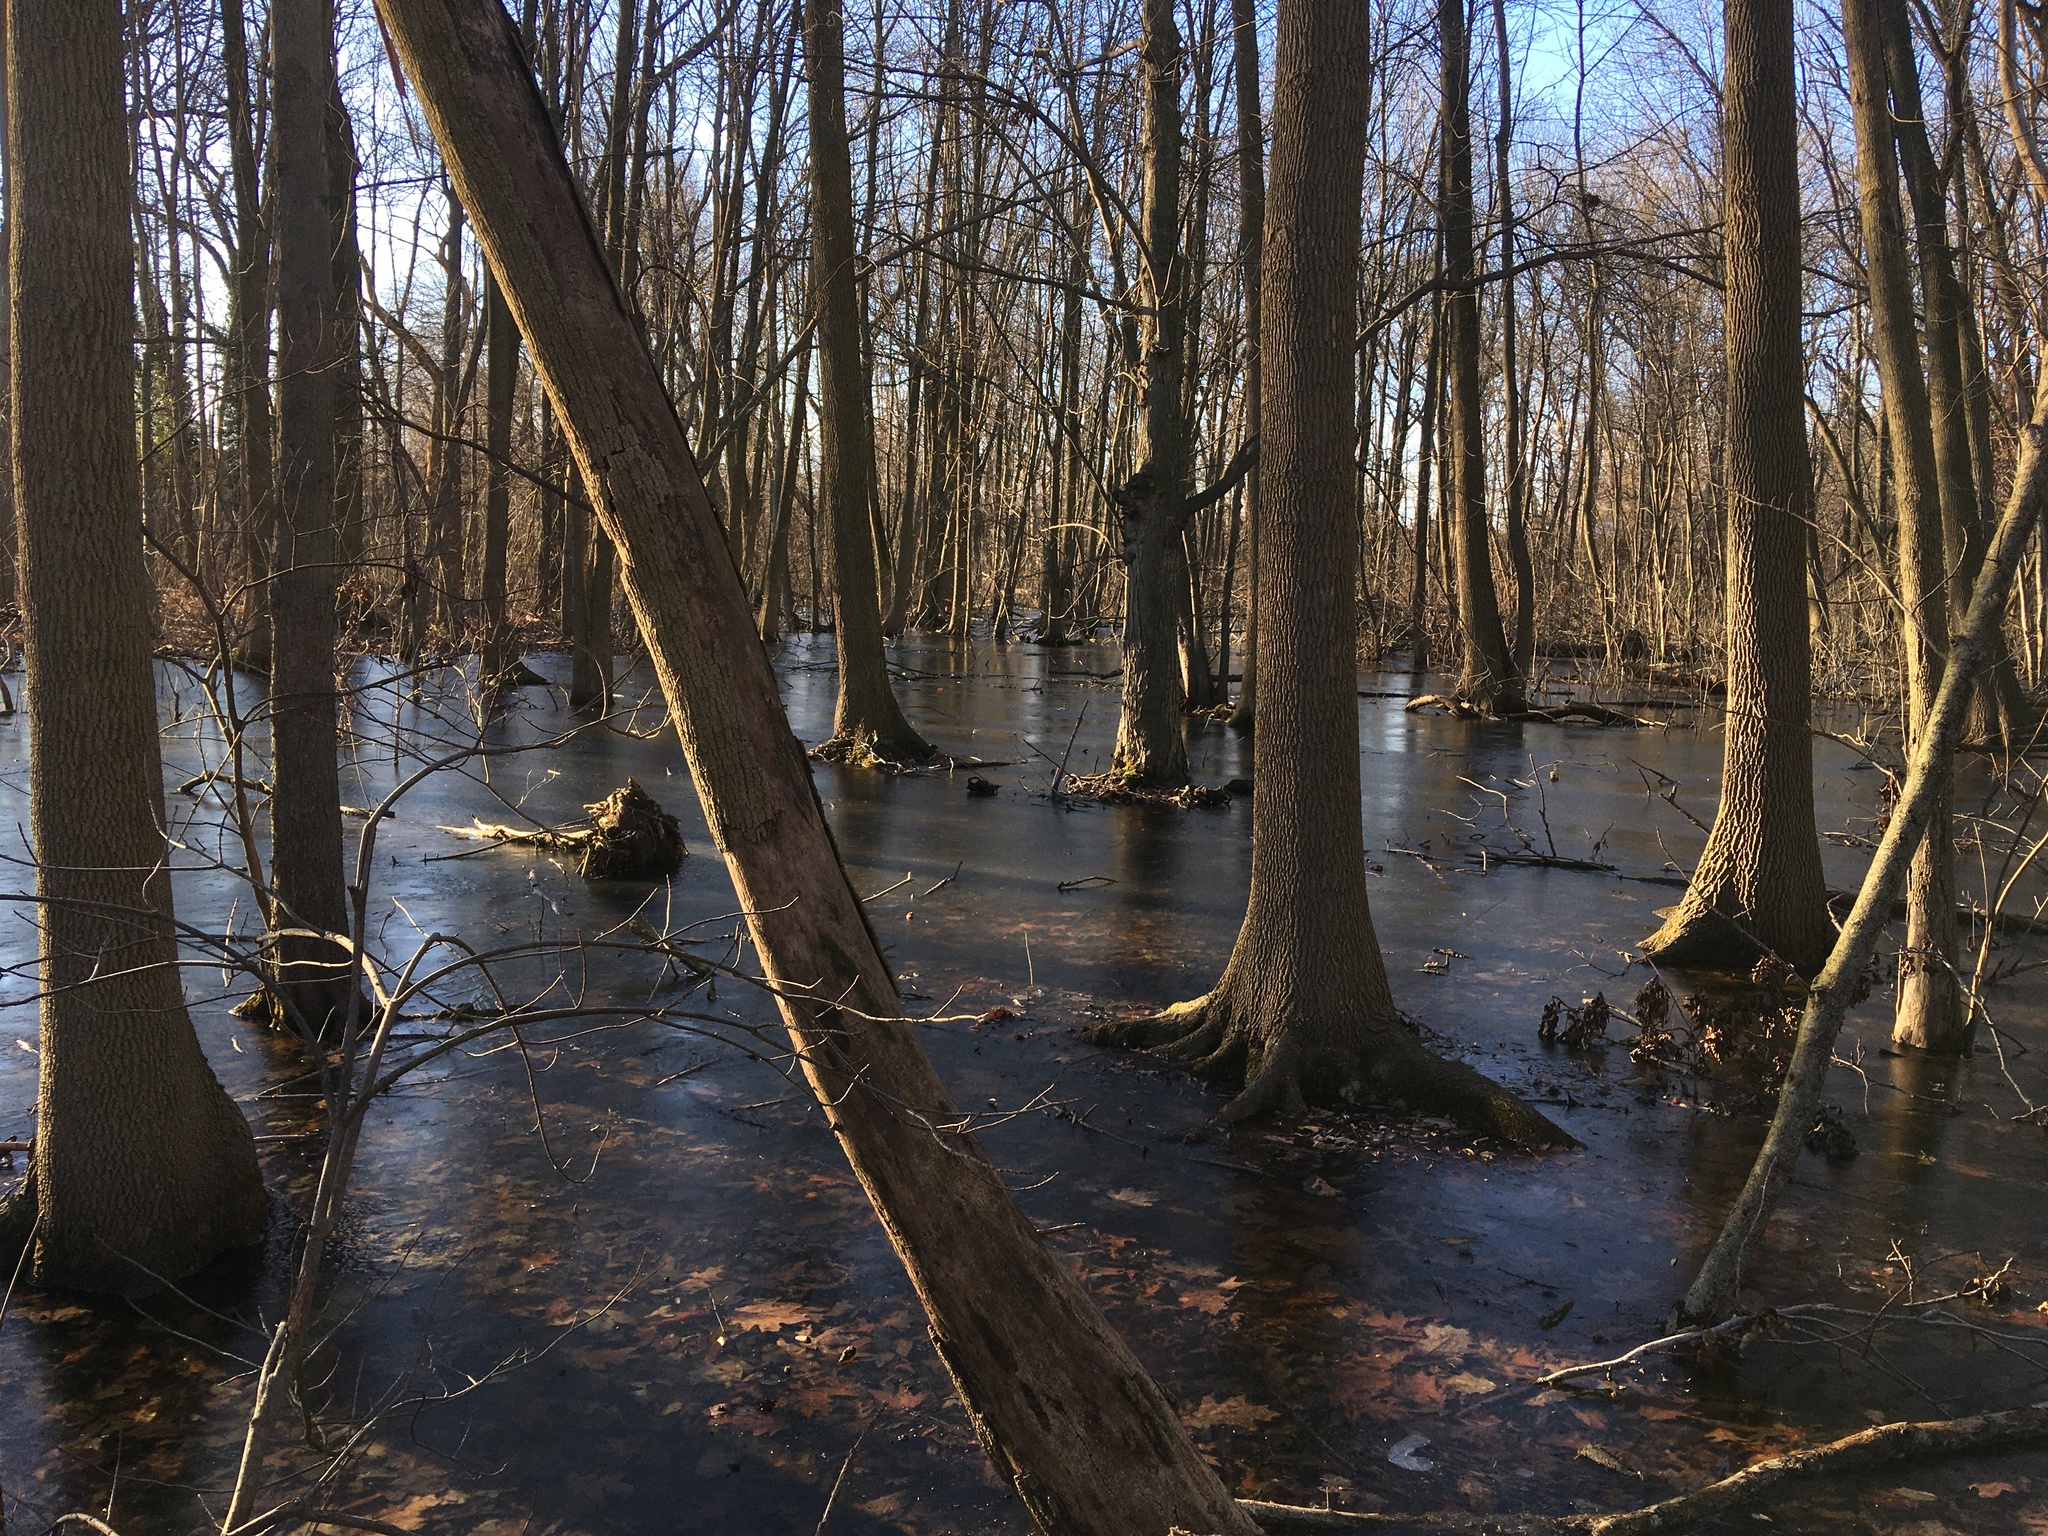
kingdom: Plantae
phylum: Tracheophyta
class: Magnoliopsida
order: Lamiales
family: Oleaceae
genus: Fraxinus
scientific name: Fraxinus profunda
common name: Pumpkin ash
